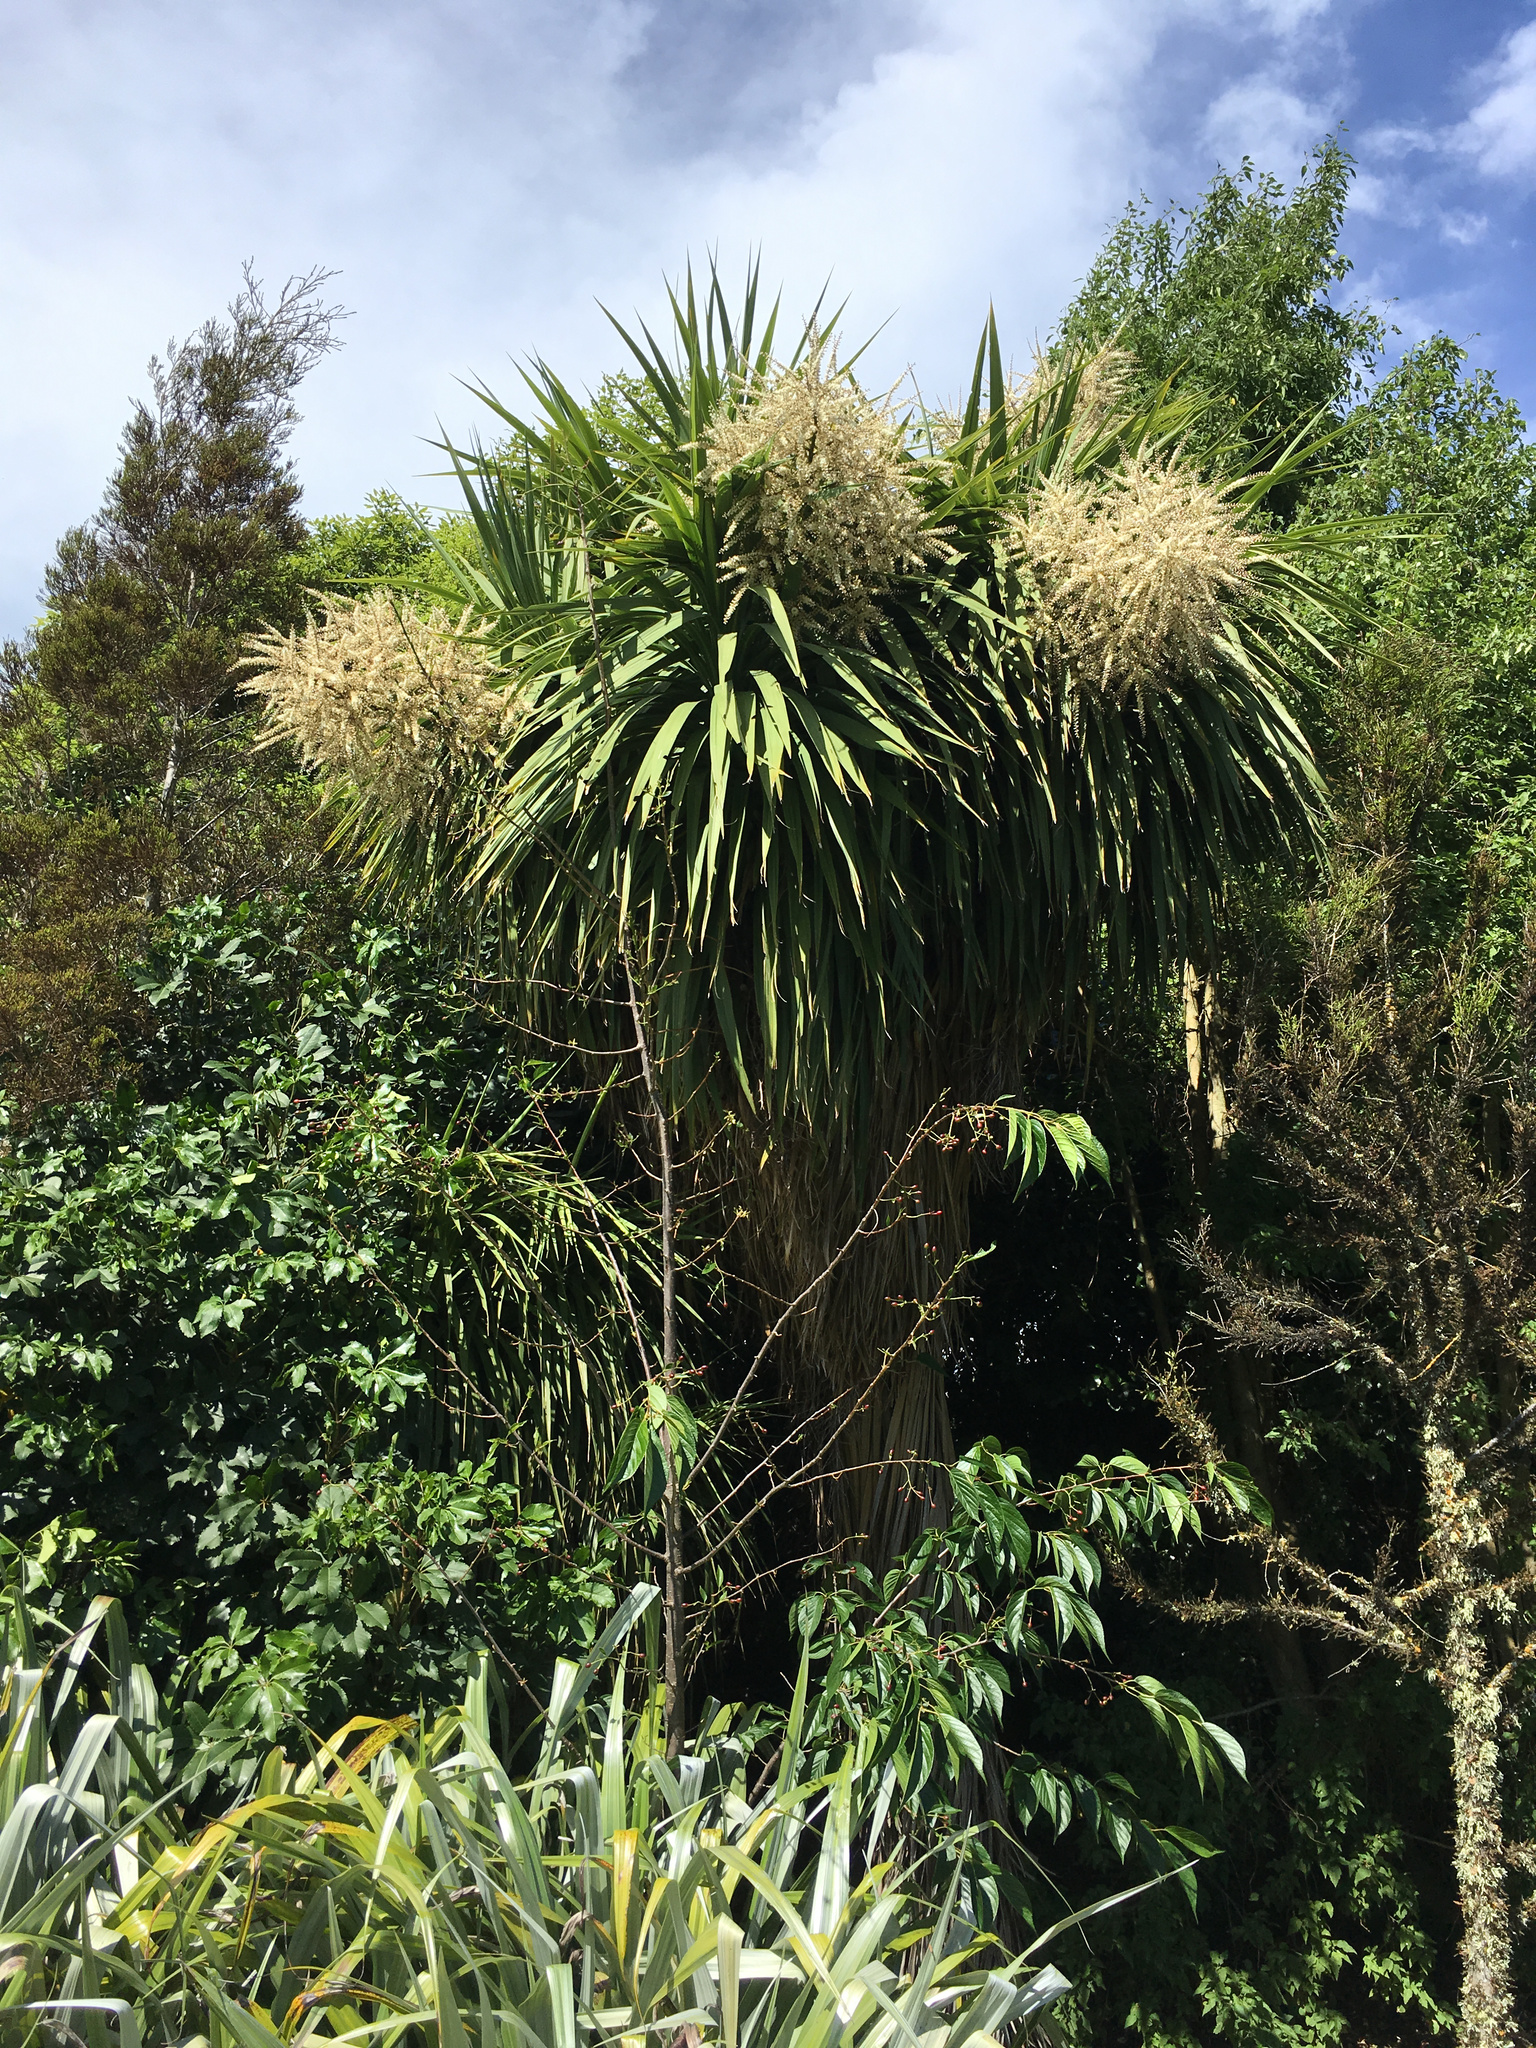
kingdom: Plantae
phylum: Tracheophyta
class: Liliopsida
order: Asparagales
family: Asparagaceae
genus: Cordyline
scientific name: Cordyline australis
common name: Cabbage-palm
